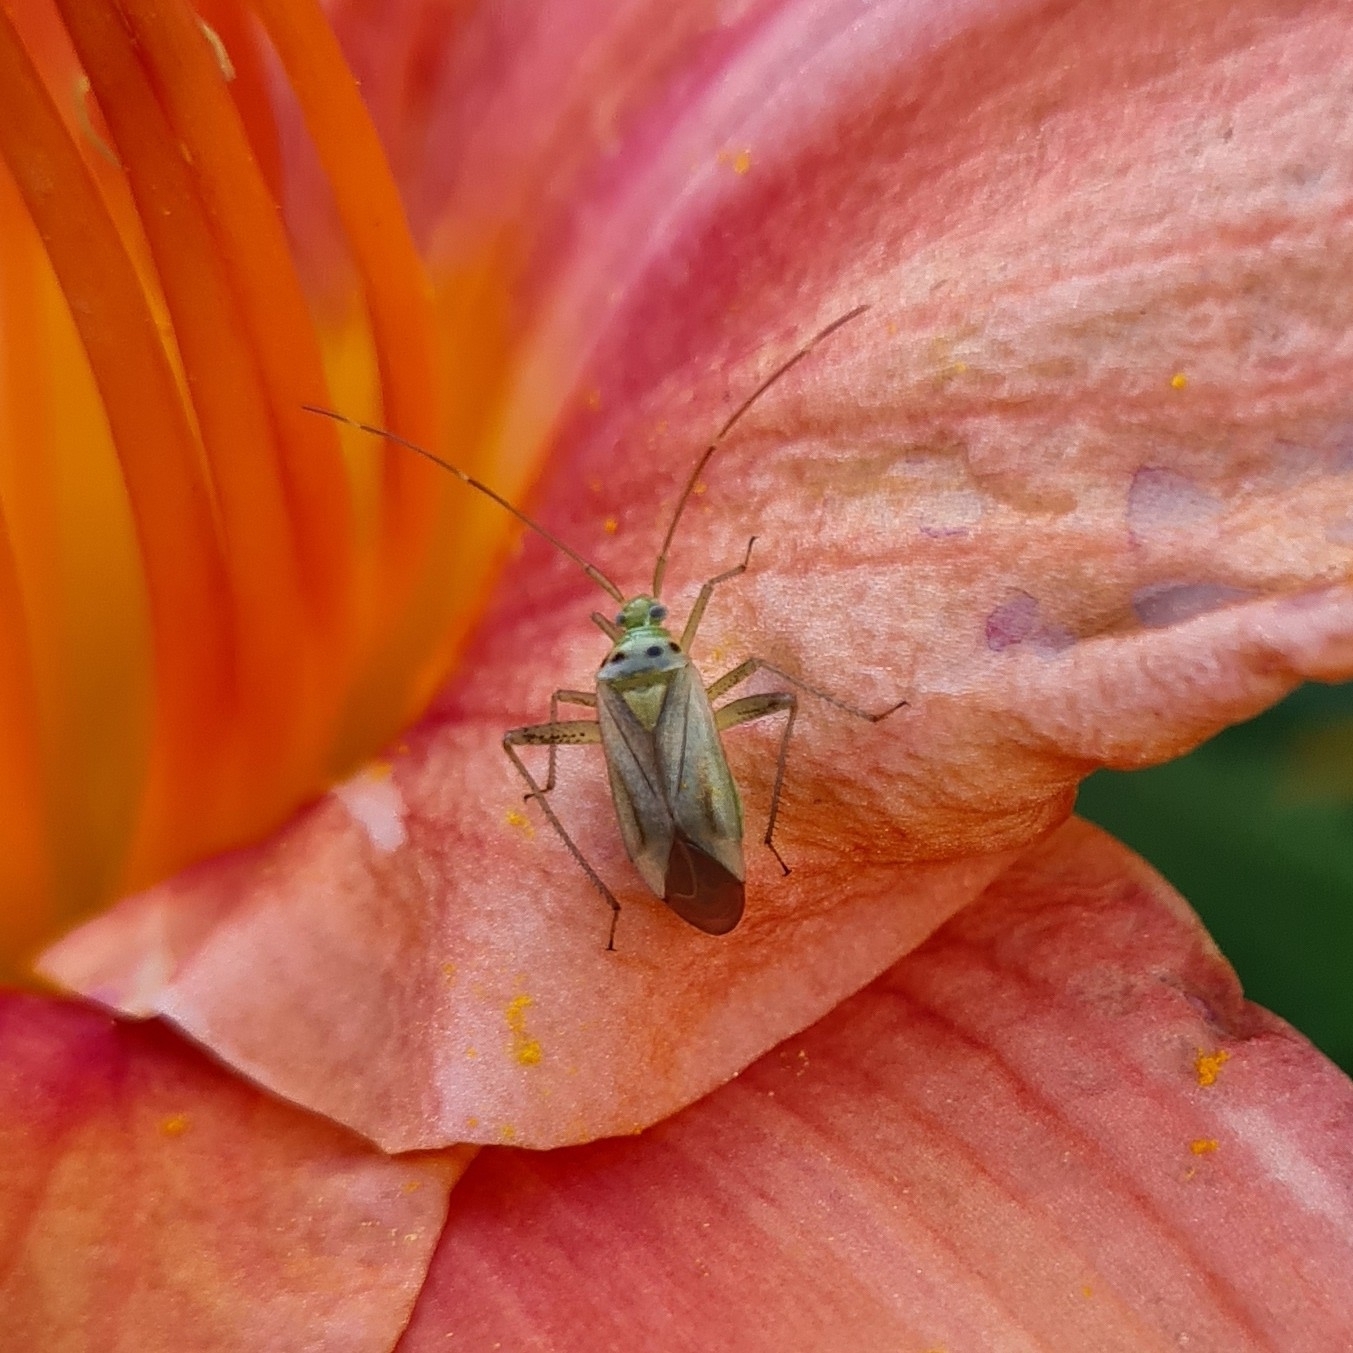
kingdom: Animalia
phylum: Arthropoda
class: Insecta
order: Hemiptera
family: Miridae
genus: Adelphocoris
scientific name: Adelphocoris quadripunctatus
